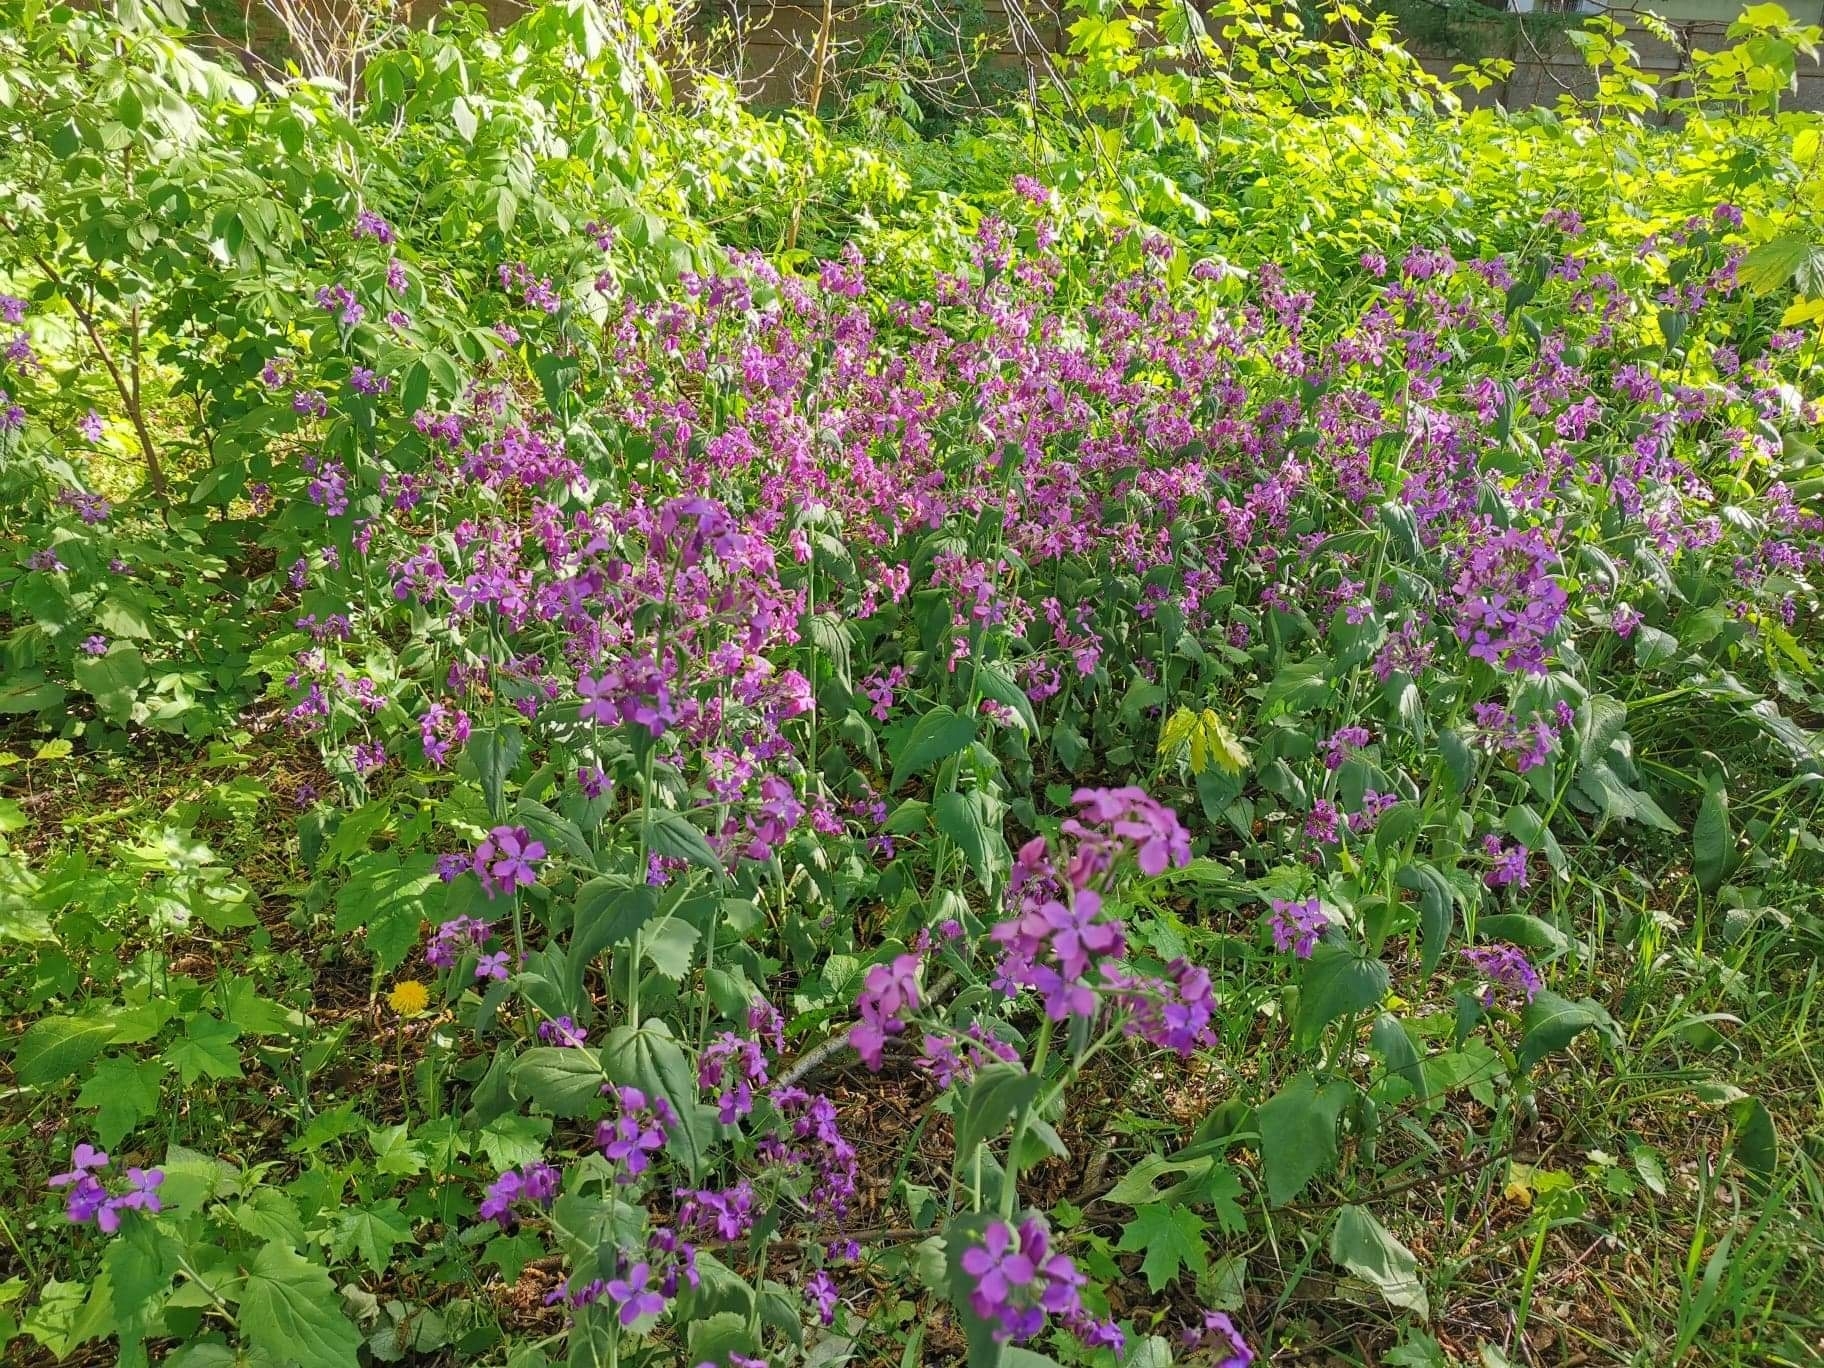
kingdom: Plantae
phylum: Tracheophyta
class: Magnoliopsida
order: Brassicales
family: Brassicaceae
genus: Lunaria
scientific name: Lunaria annua
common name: Honesty
